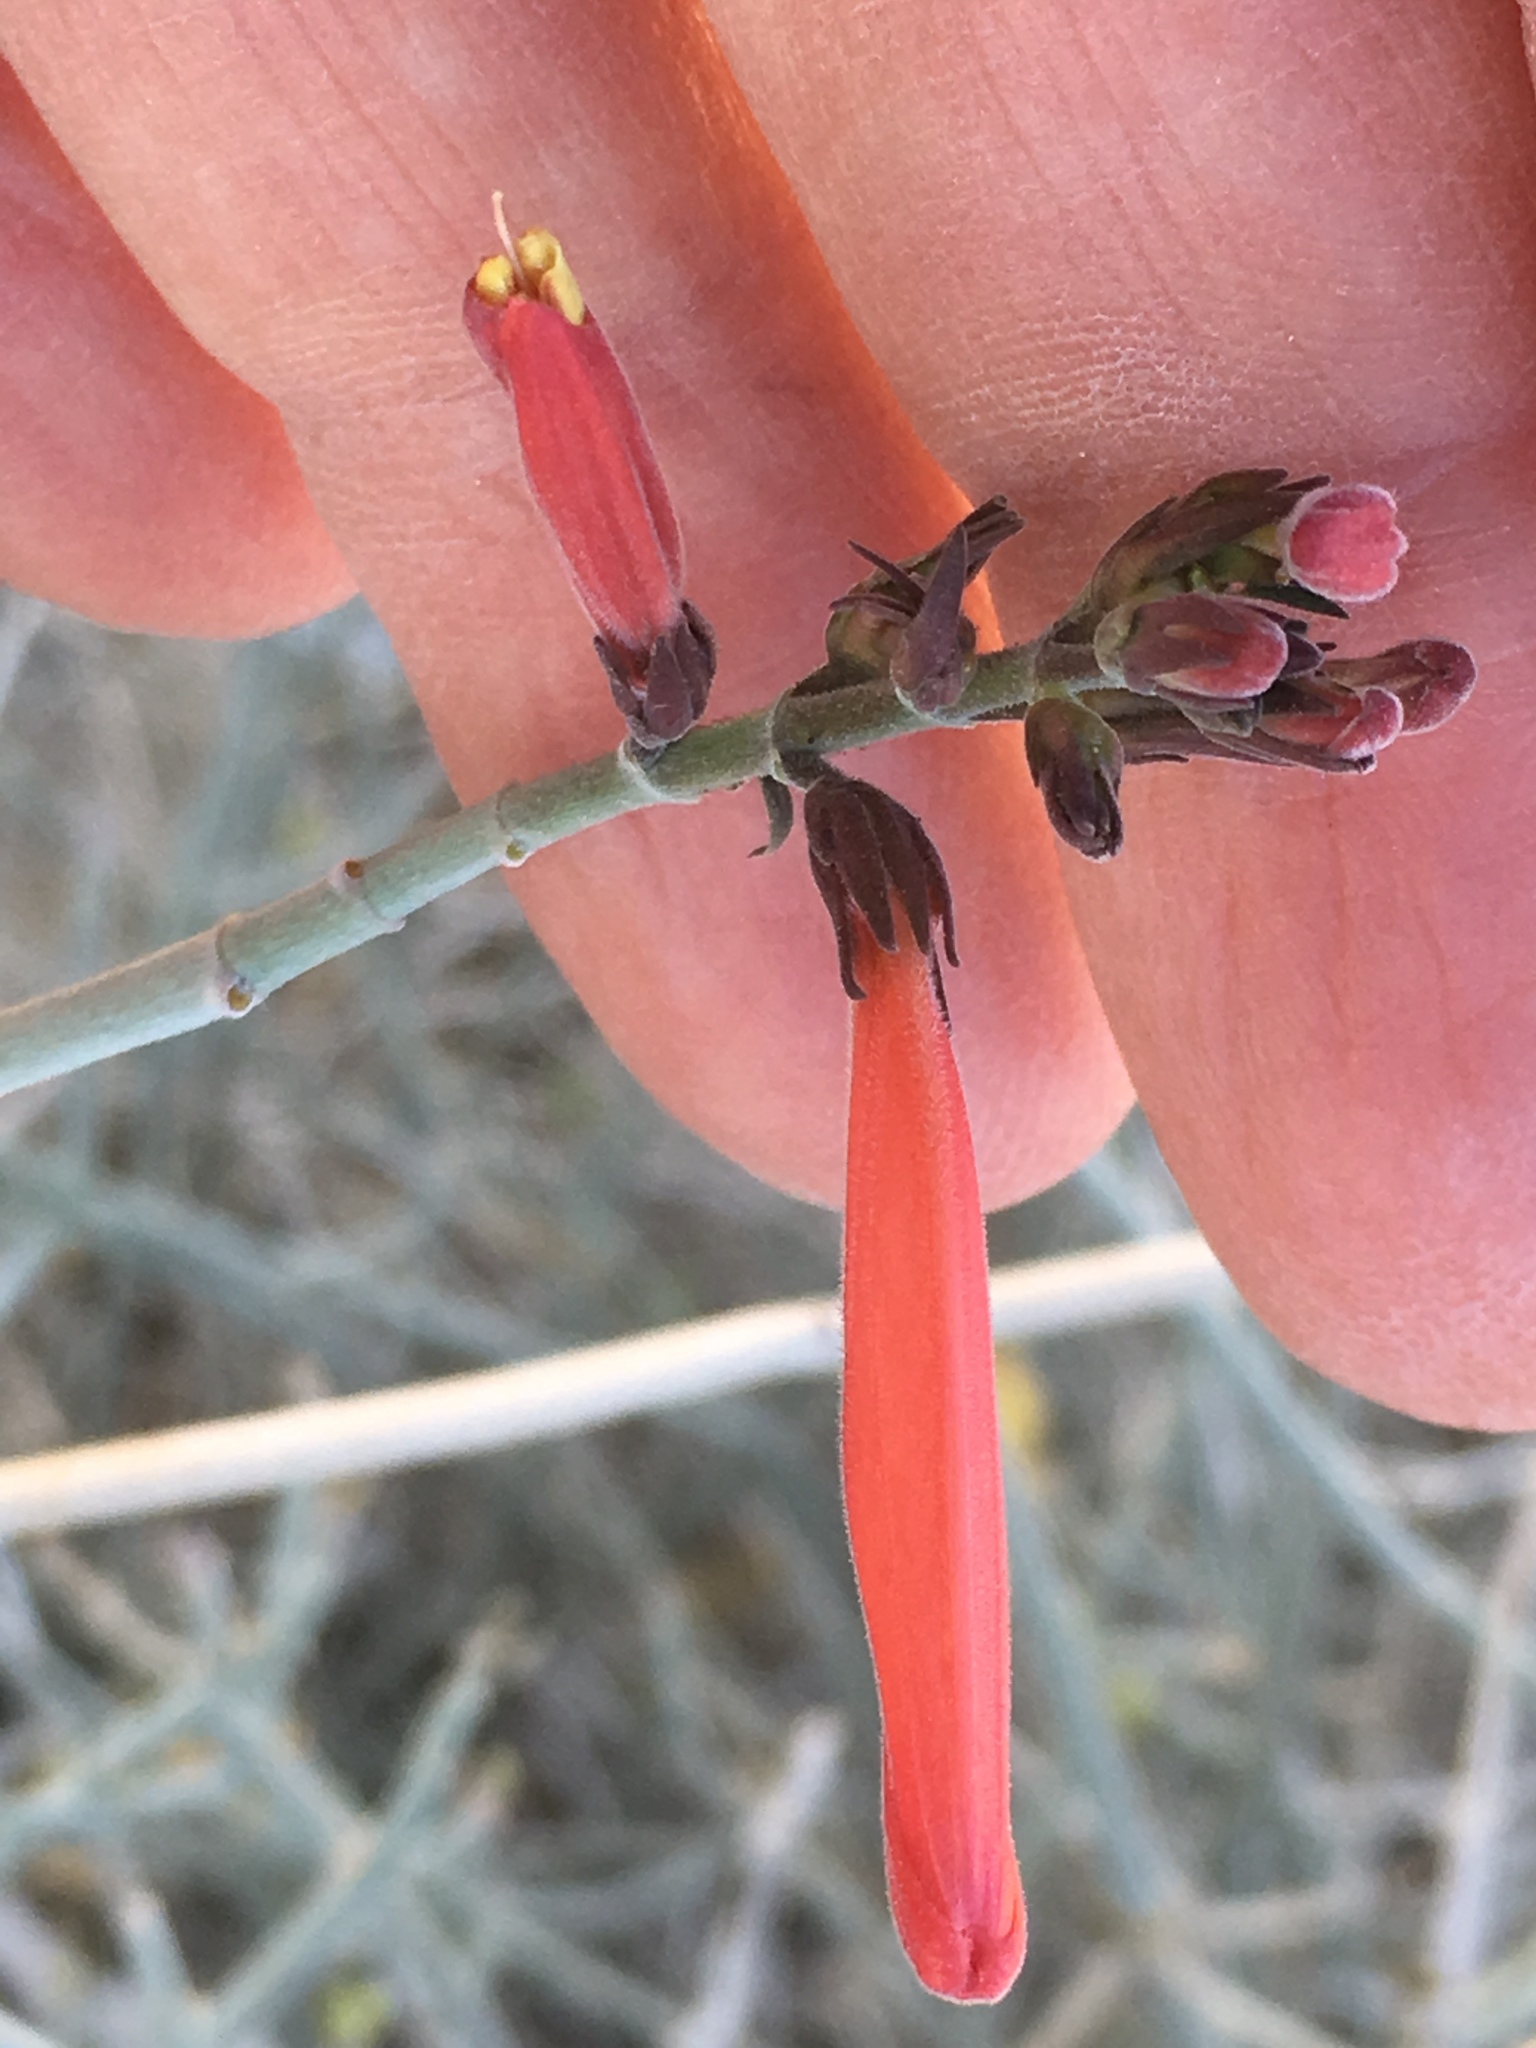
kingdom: Plantae
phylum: Tracheophyta
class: Magnoliopsida
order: Lamiales
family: Acanthaceae
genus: Justicia
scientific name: Justicia californica
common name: Chuparosa-honeysuckle
